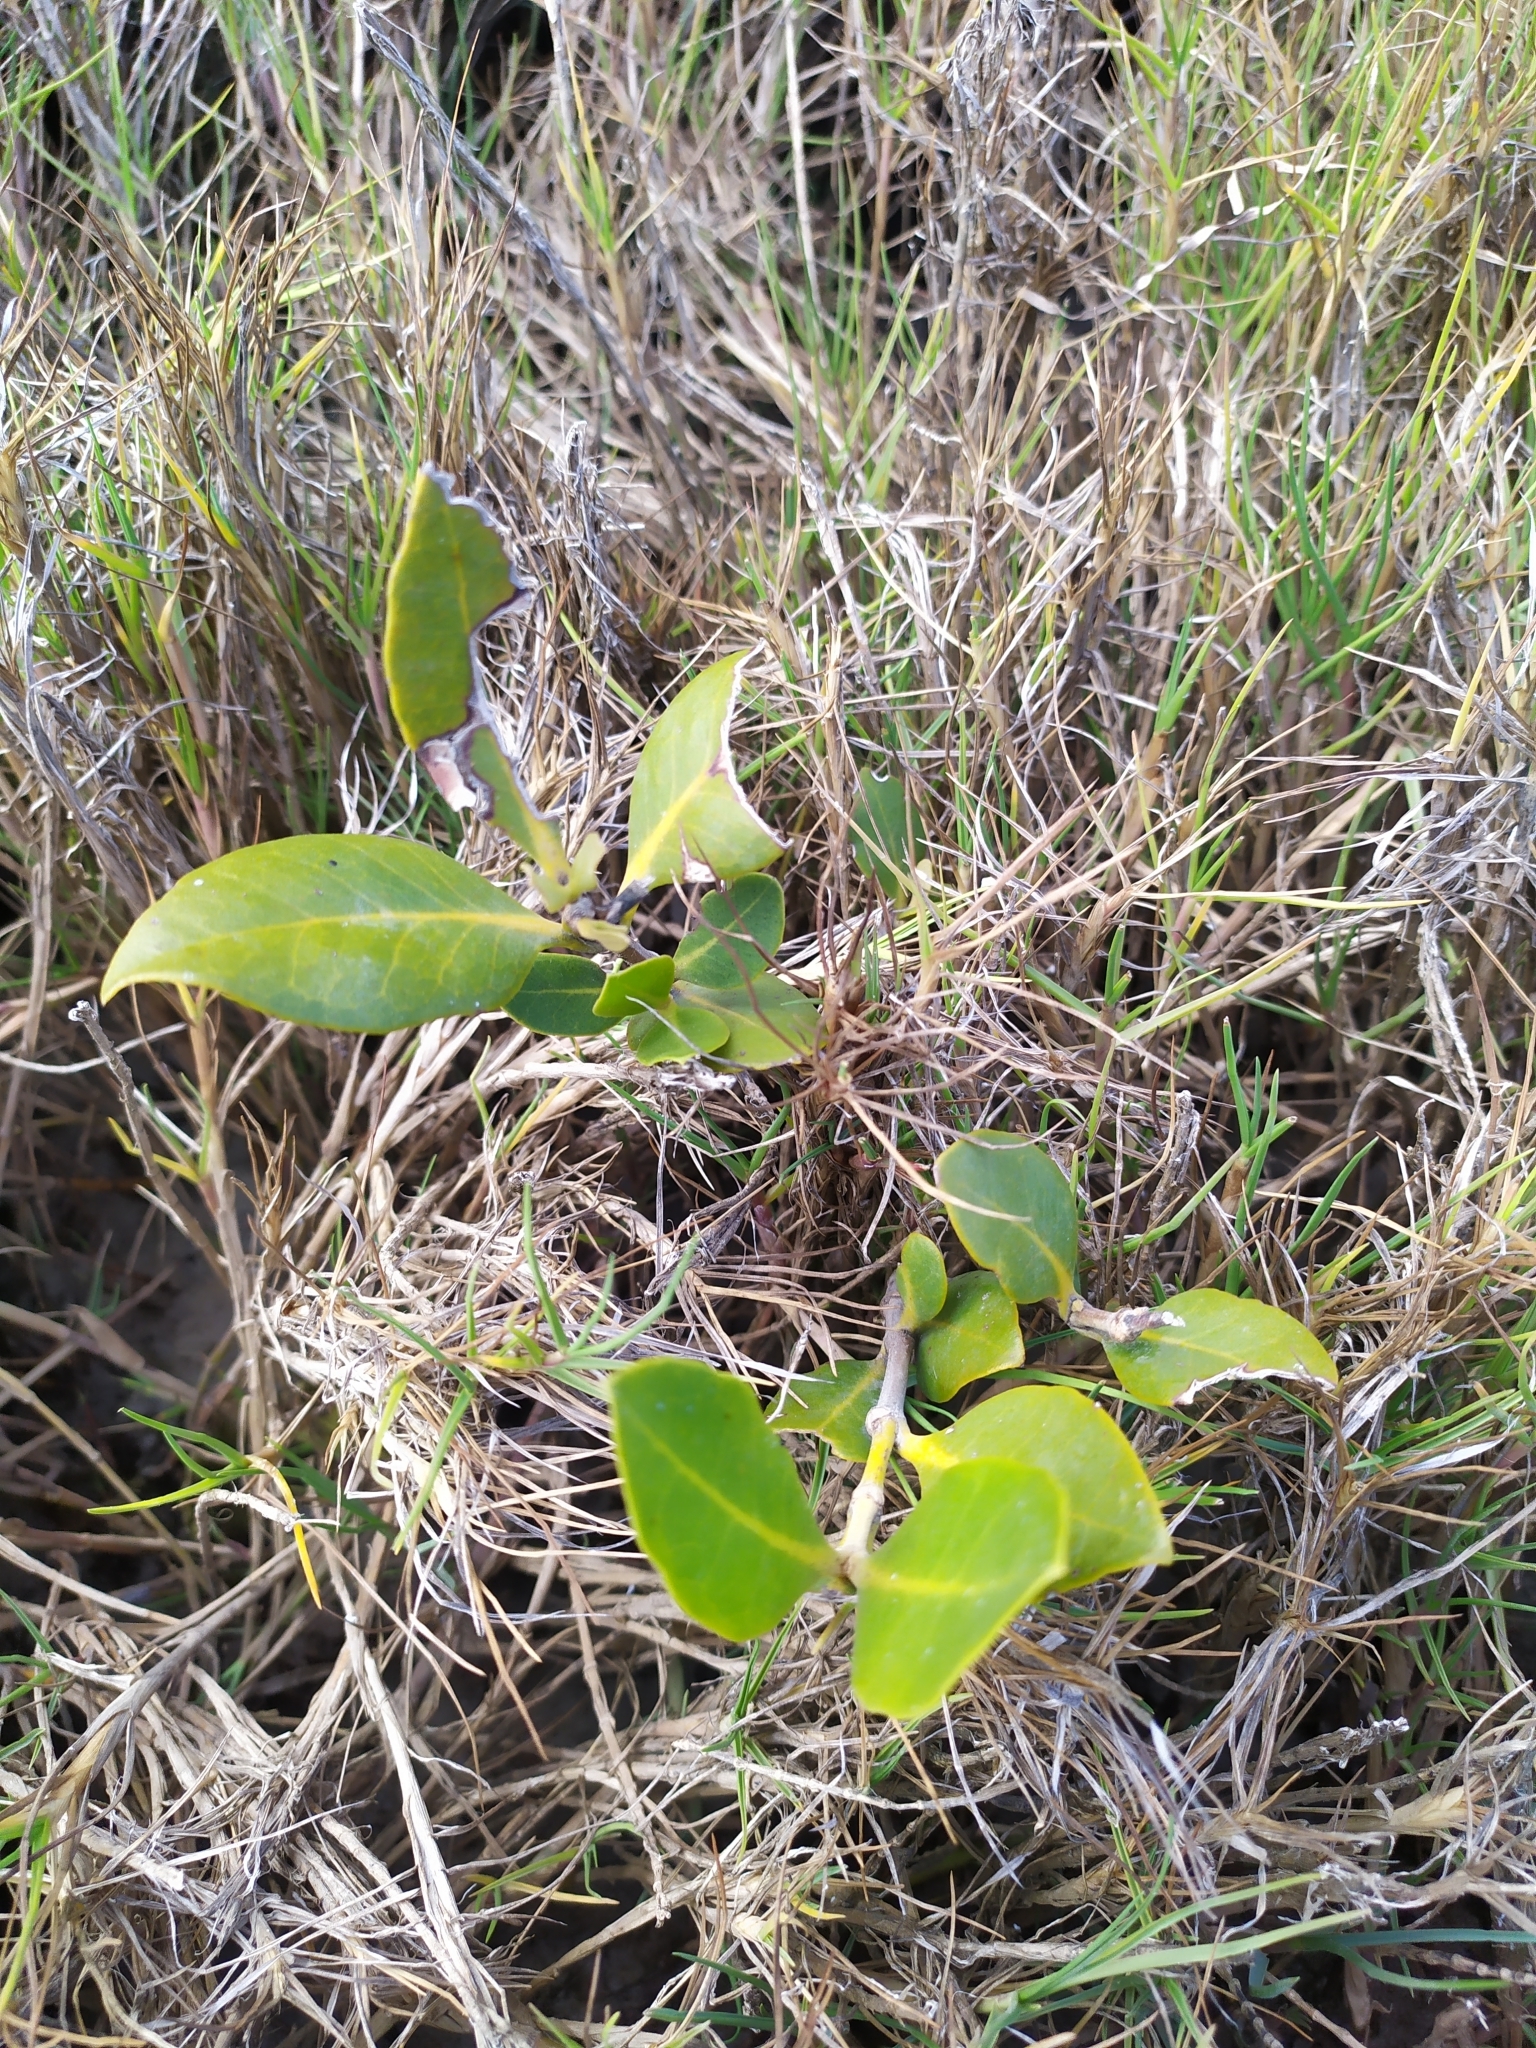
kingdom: Plantae
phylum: Tracheophyta
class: Magnoliopsida
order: Lamiales
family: Acanthaceae
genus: Avicennia
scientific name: Avicennia marina
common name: Gray mangrove
